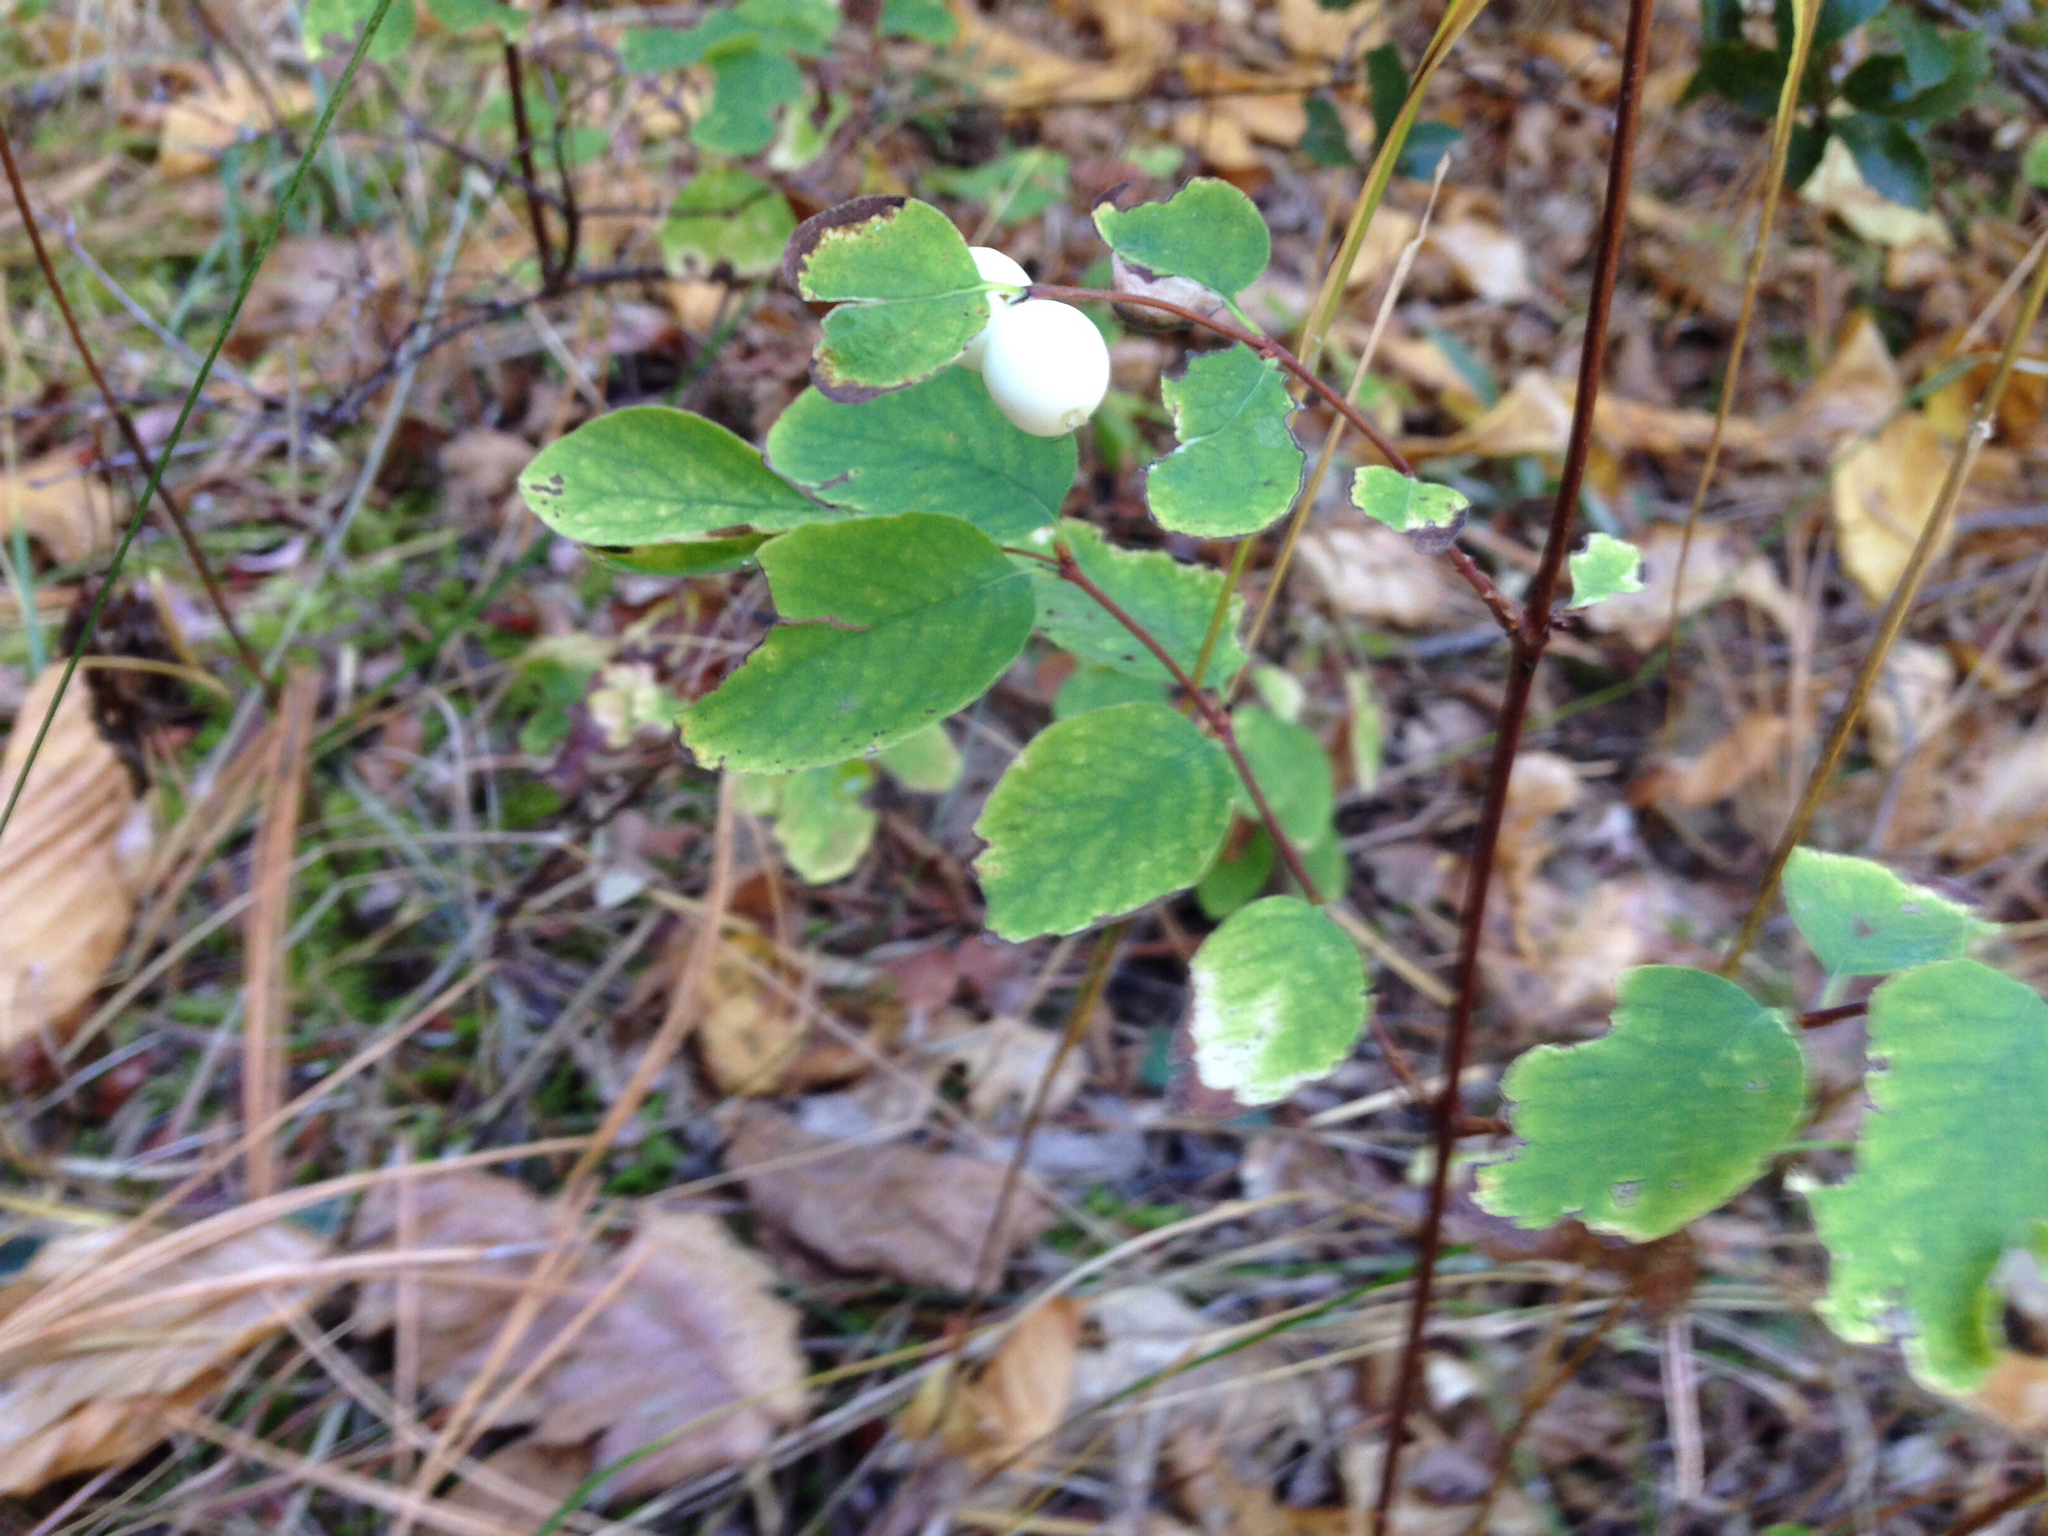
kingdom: Plantae
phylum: Tracheophyta
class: Magnoliopsida
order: Dipsacales
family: Caprifoliaceae
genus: Symphoricarpos
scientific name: Symphoricarpos albus
